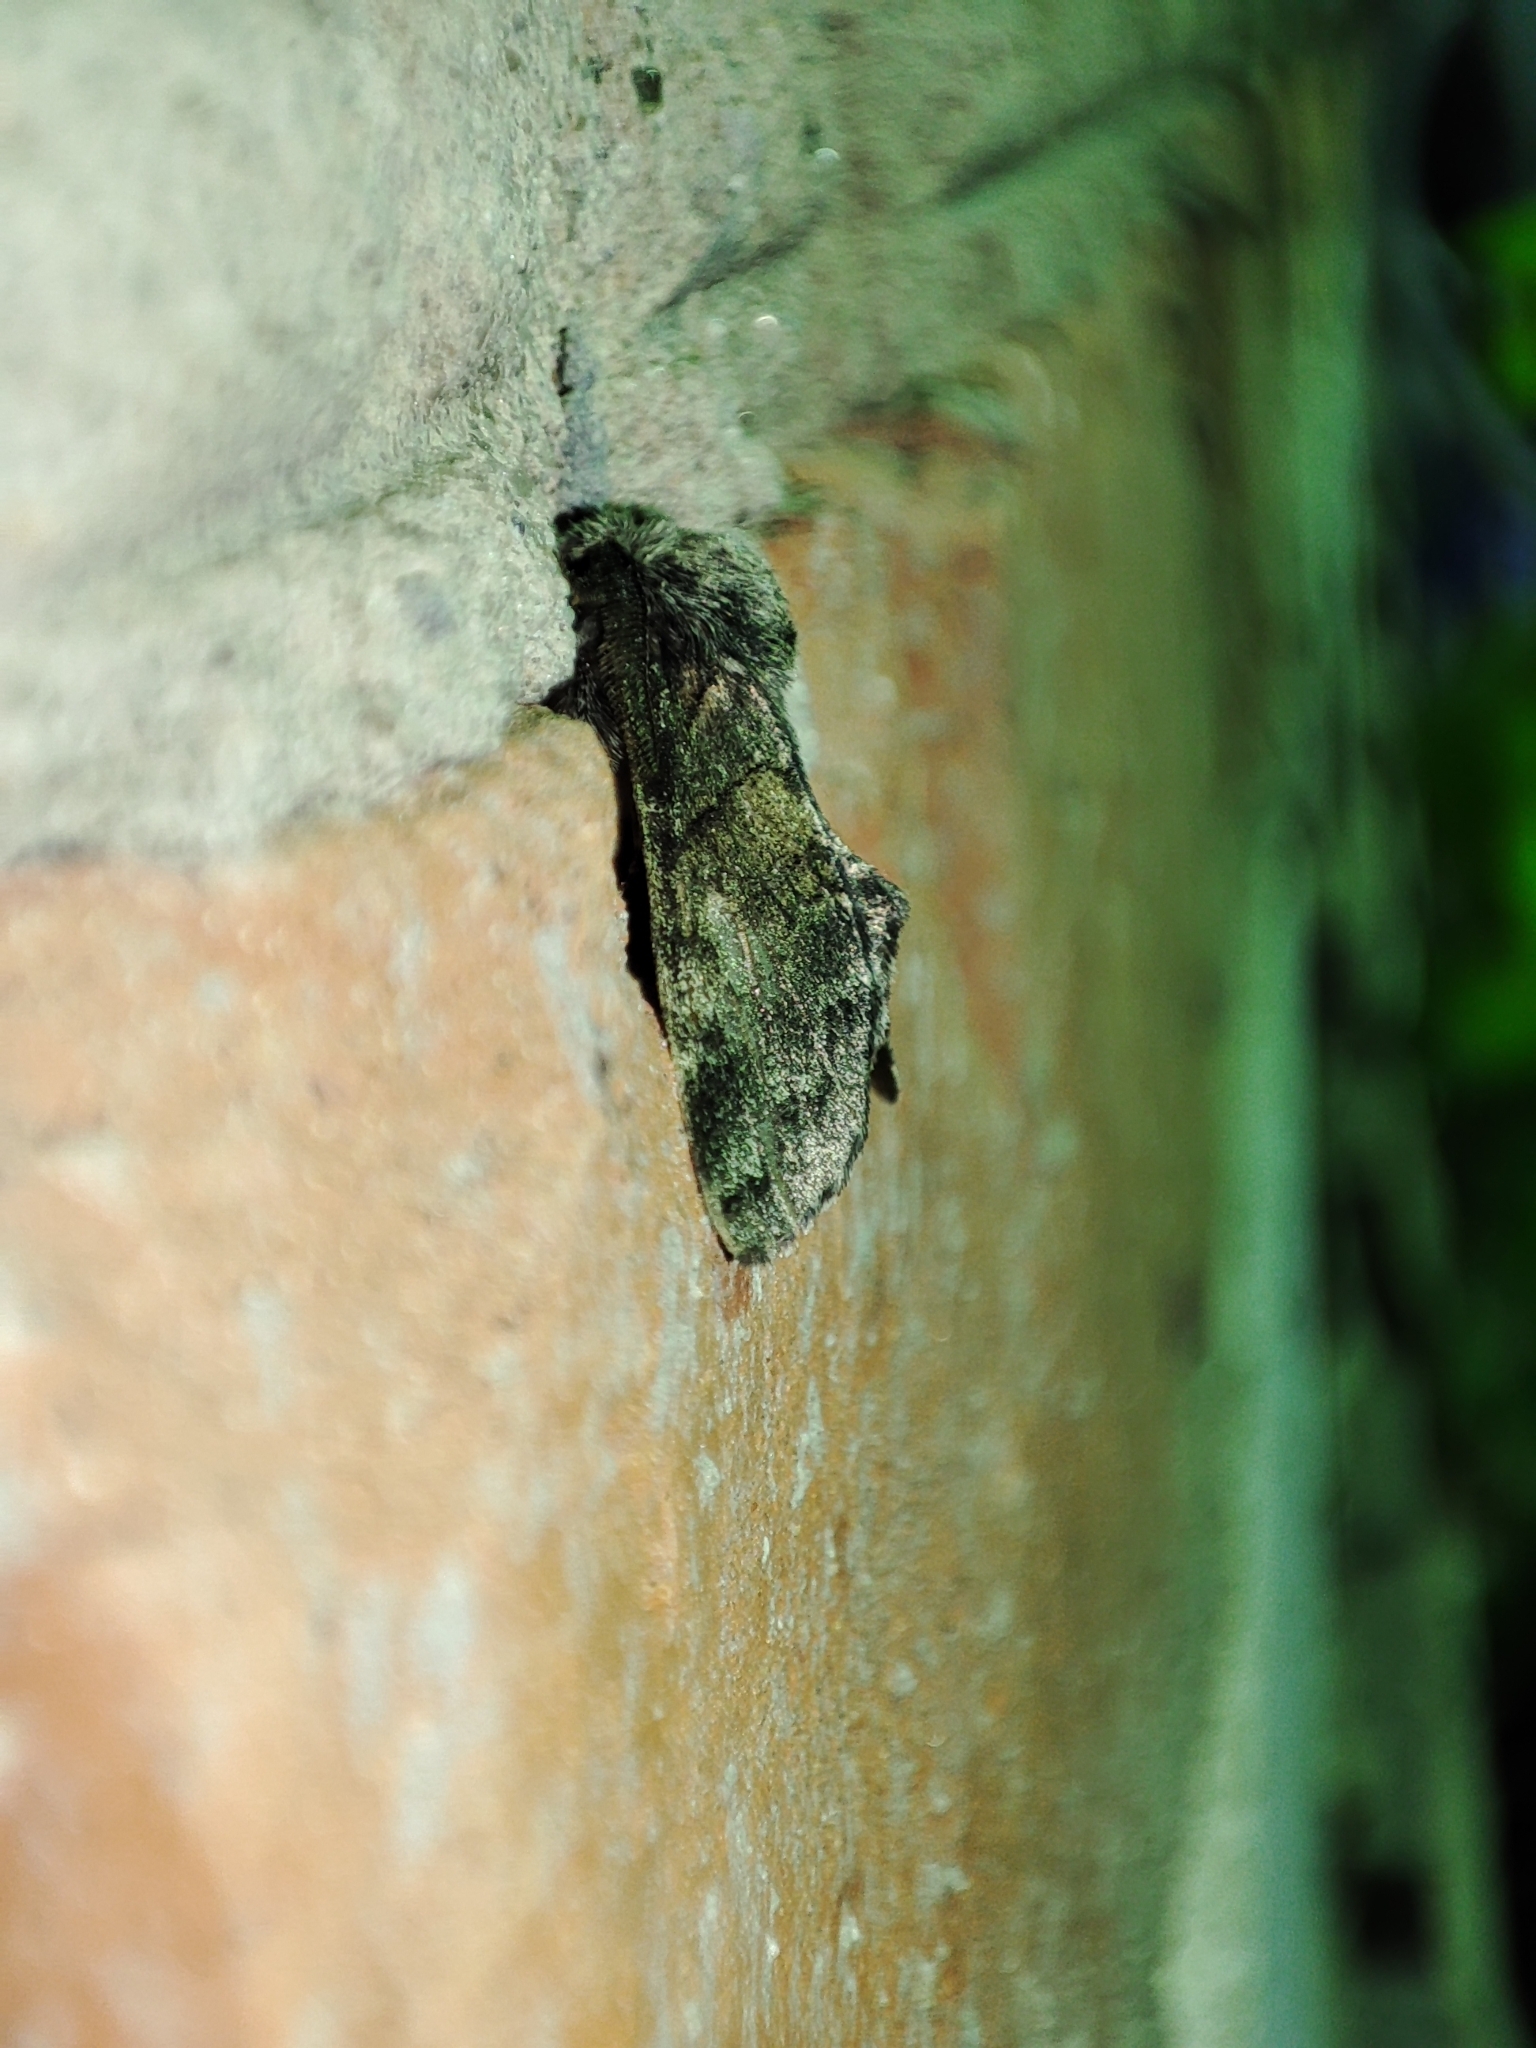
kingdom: Animalia
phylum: Arthropoda
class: Insecta
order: Lepidoptera
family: Notodontidae
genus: Gluphisia
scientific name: Gluphisia crenata
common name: Dusky marbled brown
